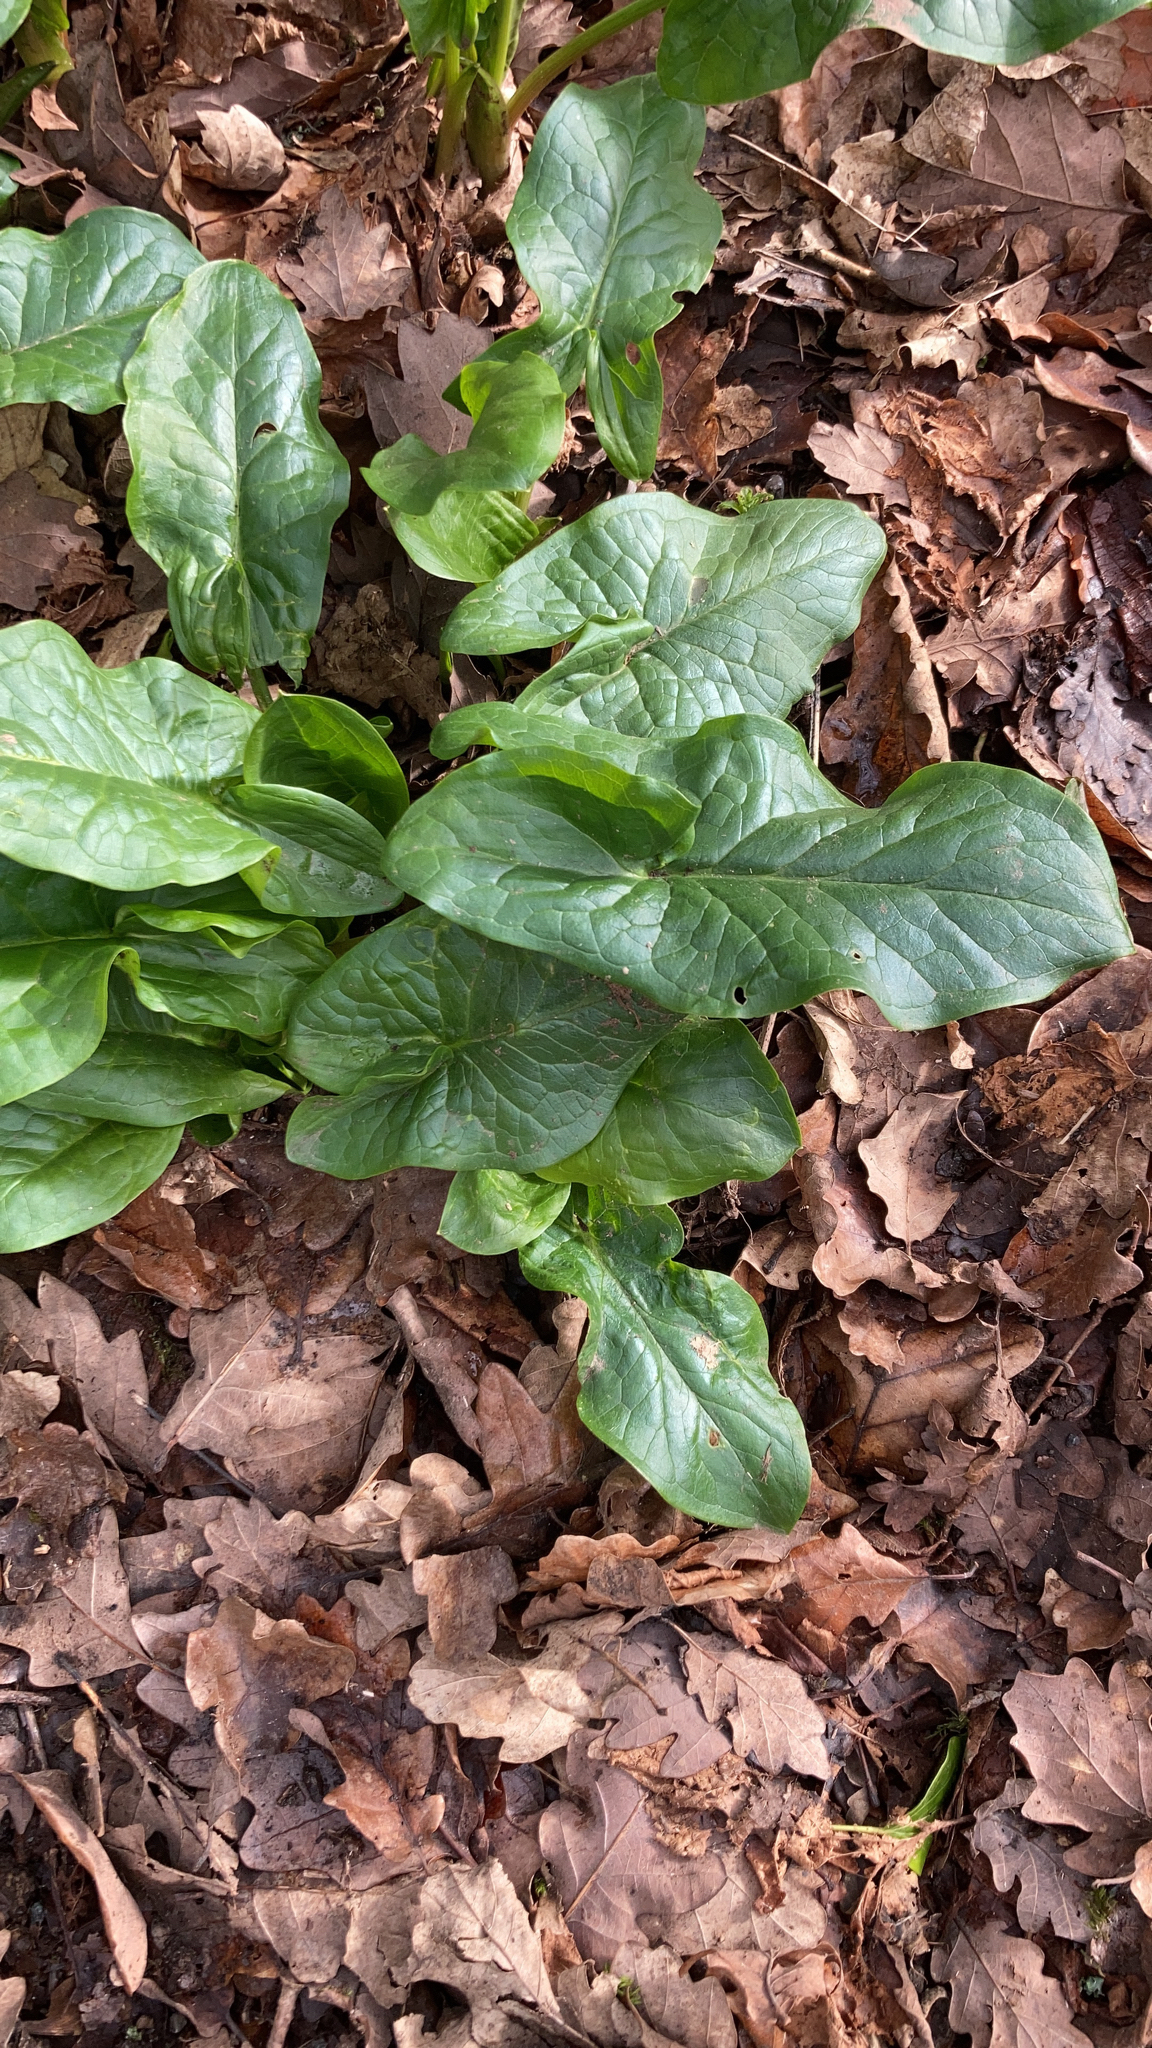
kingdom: Plantae
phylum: Tracheophyta
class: Liliopsida
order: Alismatales
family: Araceae
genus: Arum
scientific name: Arum maculatum
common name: Lords-and-ladies
